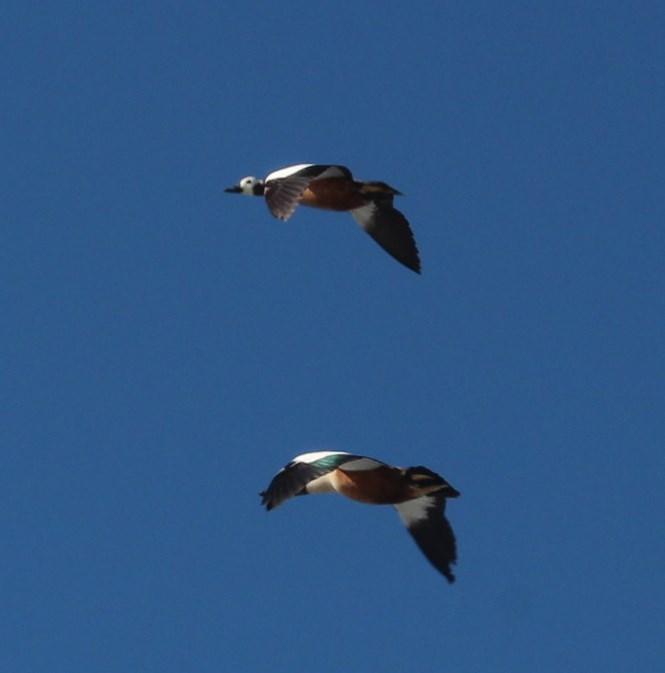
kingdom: Animalia
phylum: Chordata
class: Aves
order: Anseriformes
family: Anatidae
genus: Tadorna
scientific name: Tadorna cana
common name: South african shelduck
